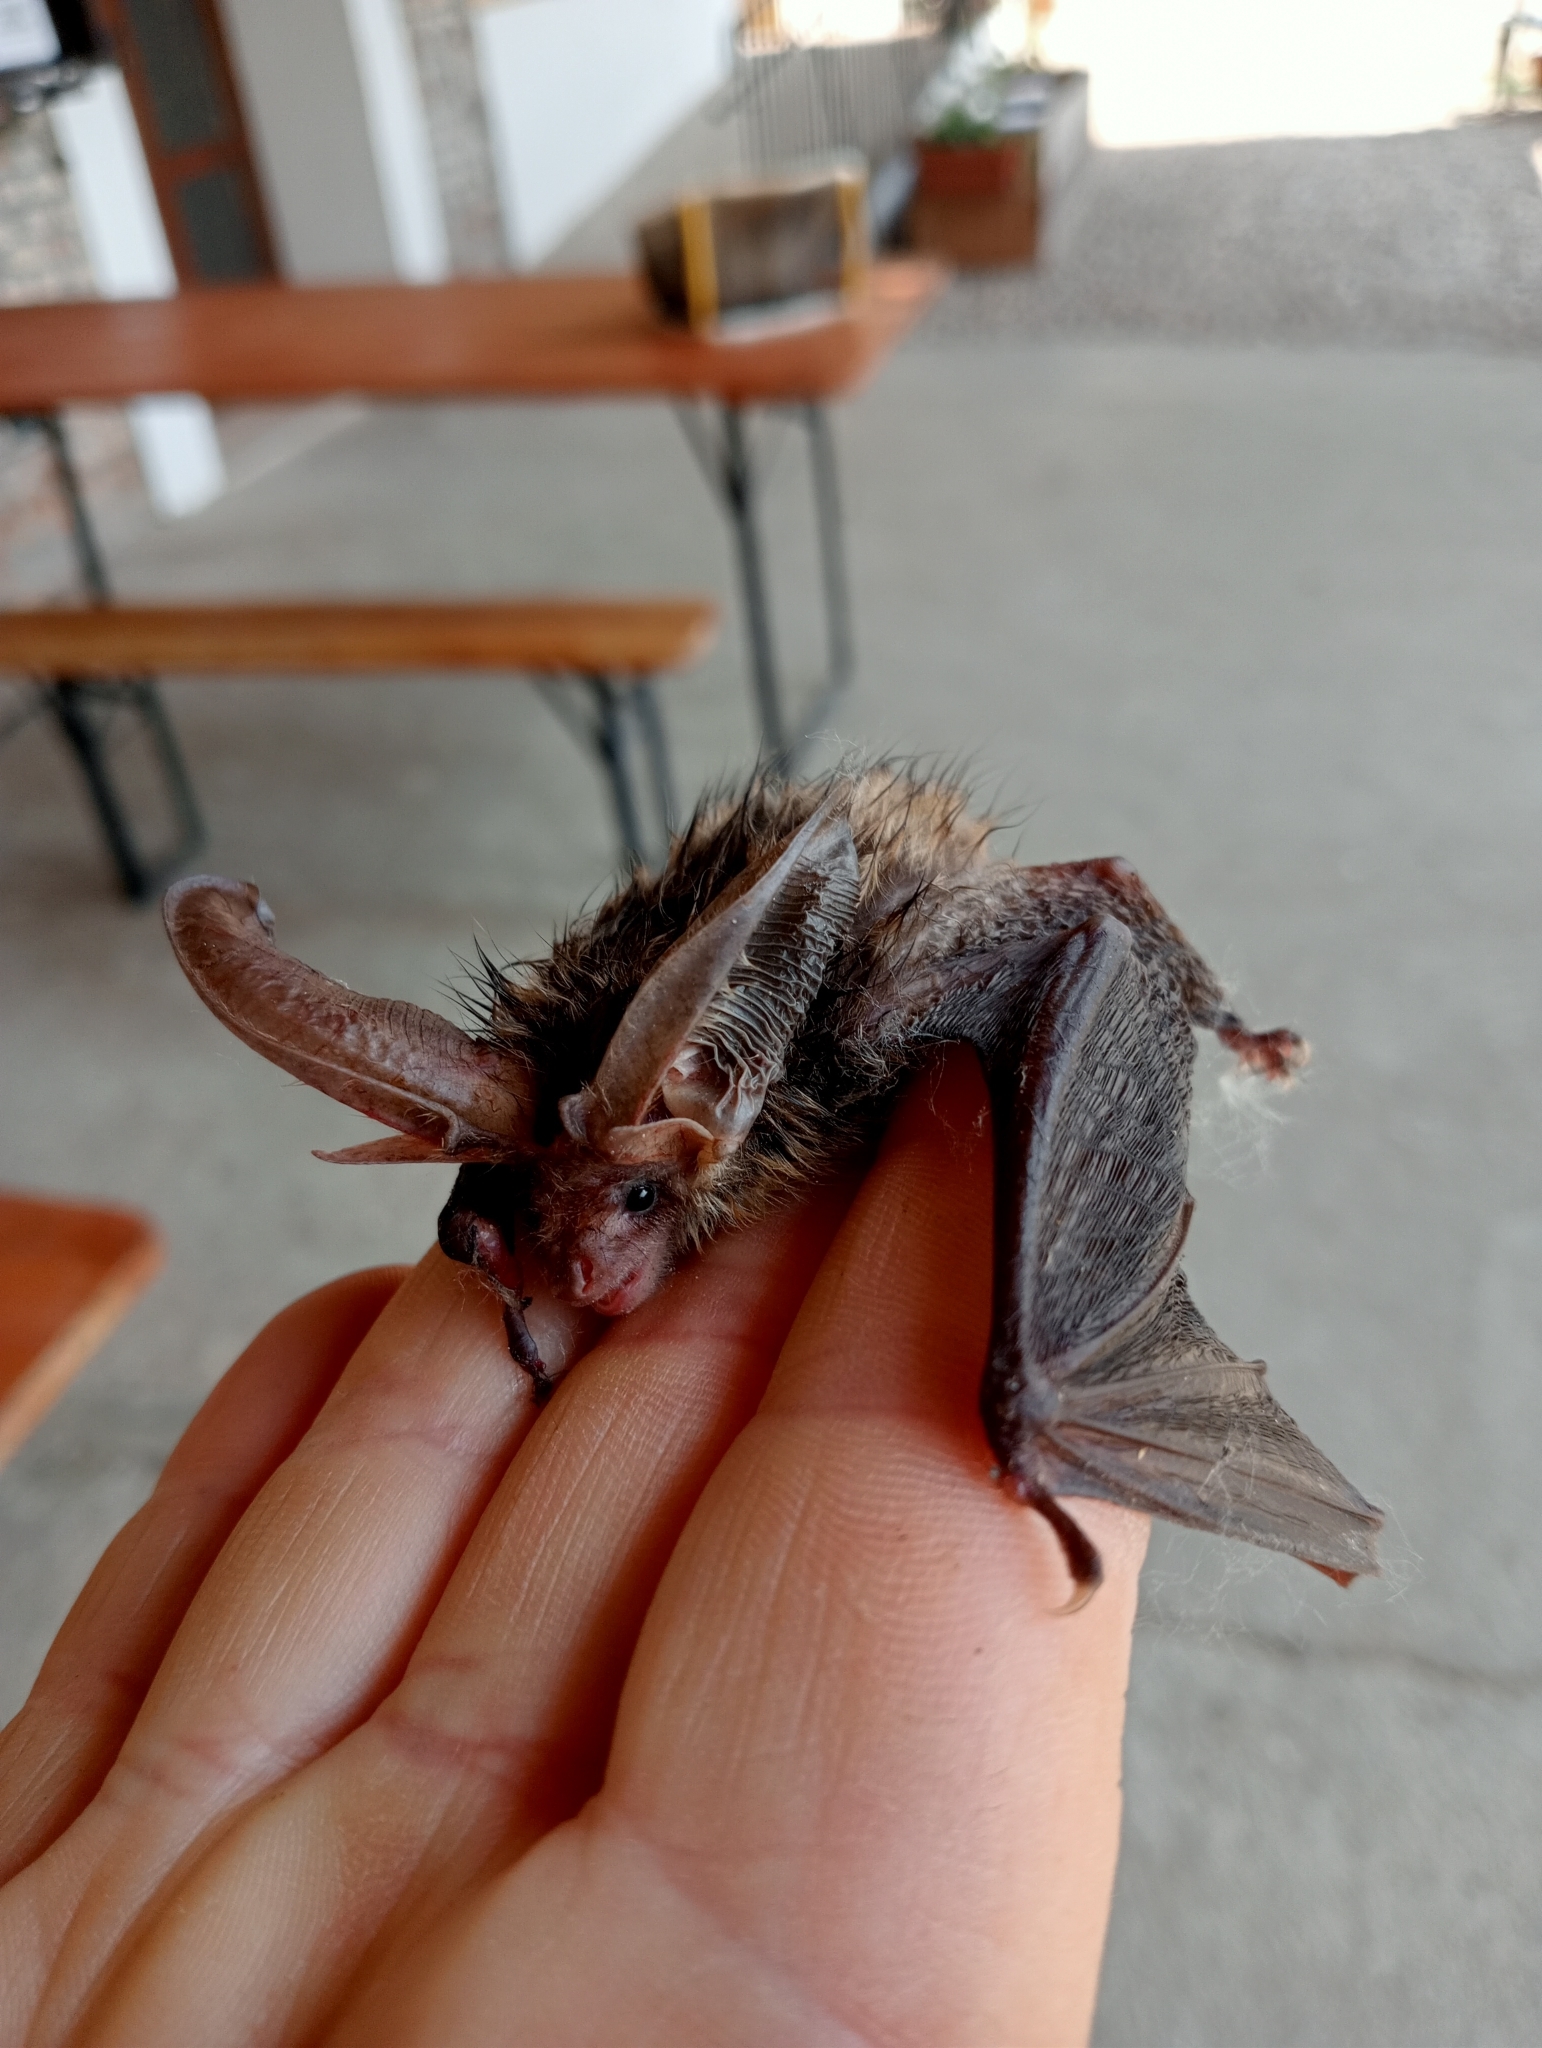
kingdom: Animalia
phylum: Chordata
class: Mammalia
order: Chiroptera
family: Vespertilionidae
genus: Plecotus
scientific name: Plecotus auritus
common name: Brown long-eared bat
